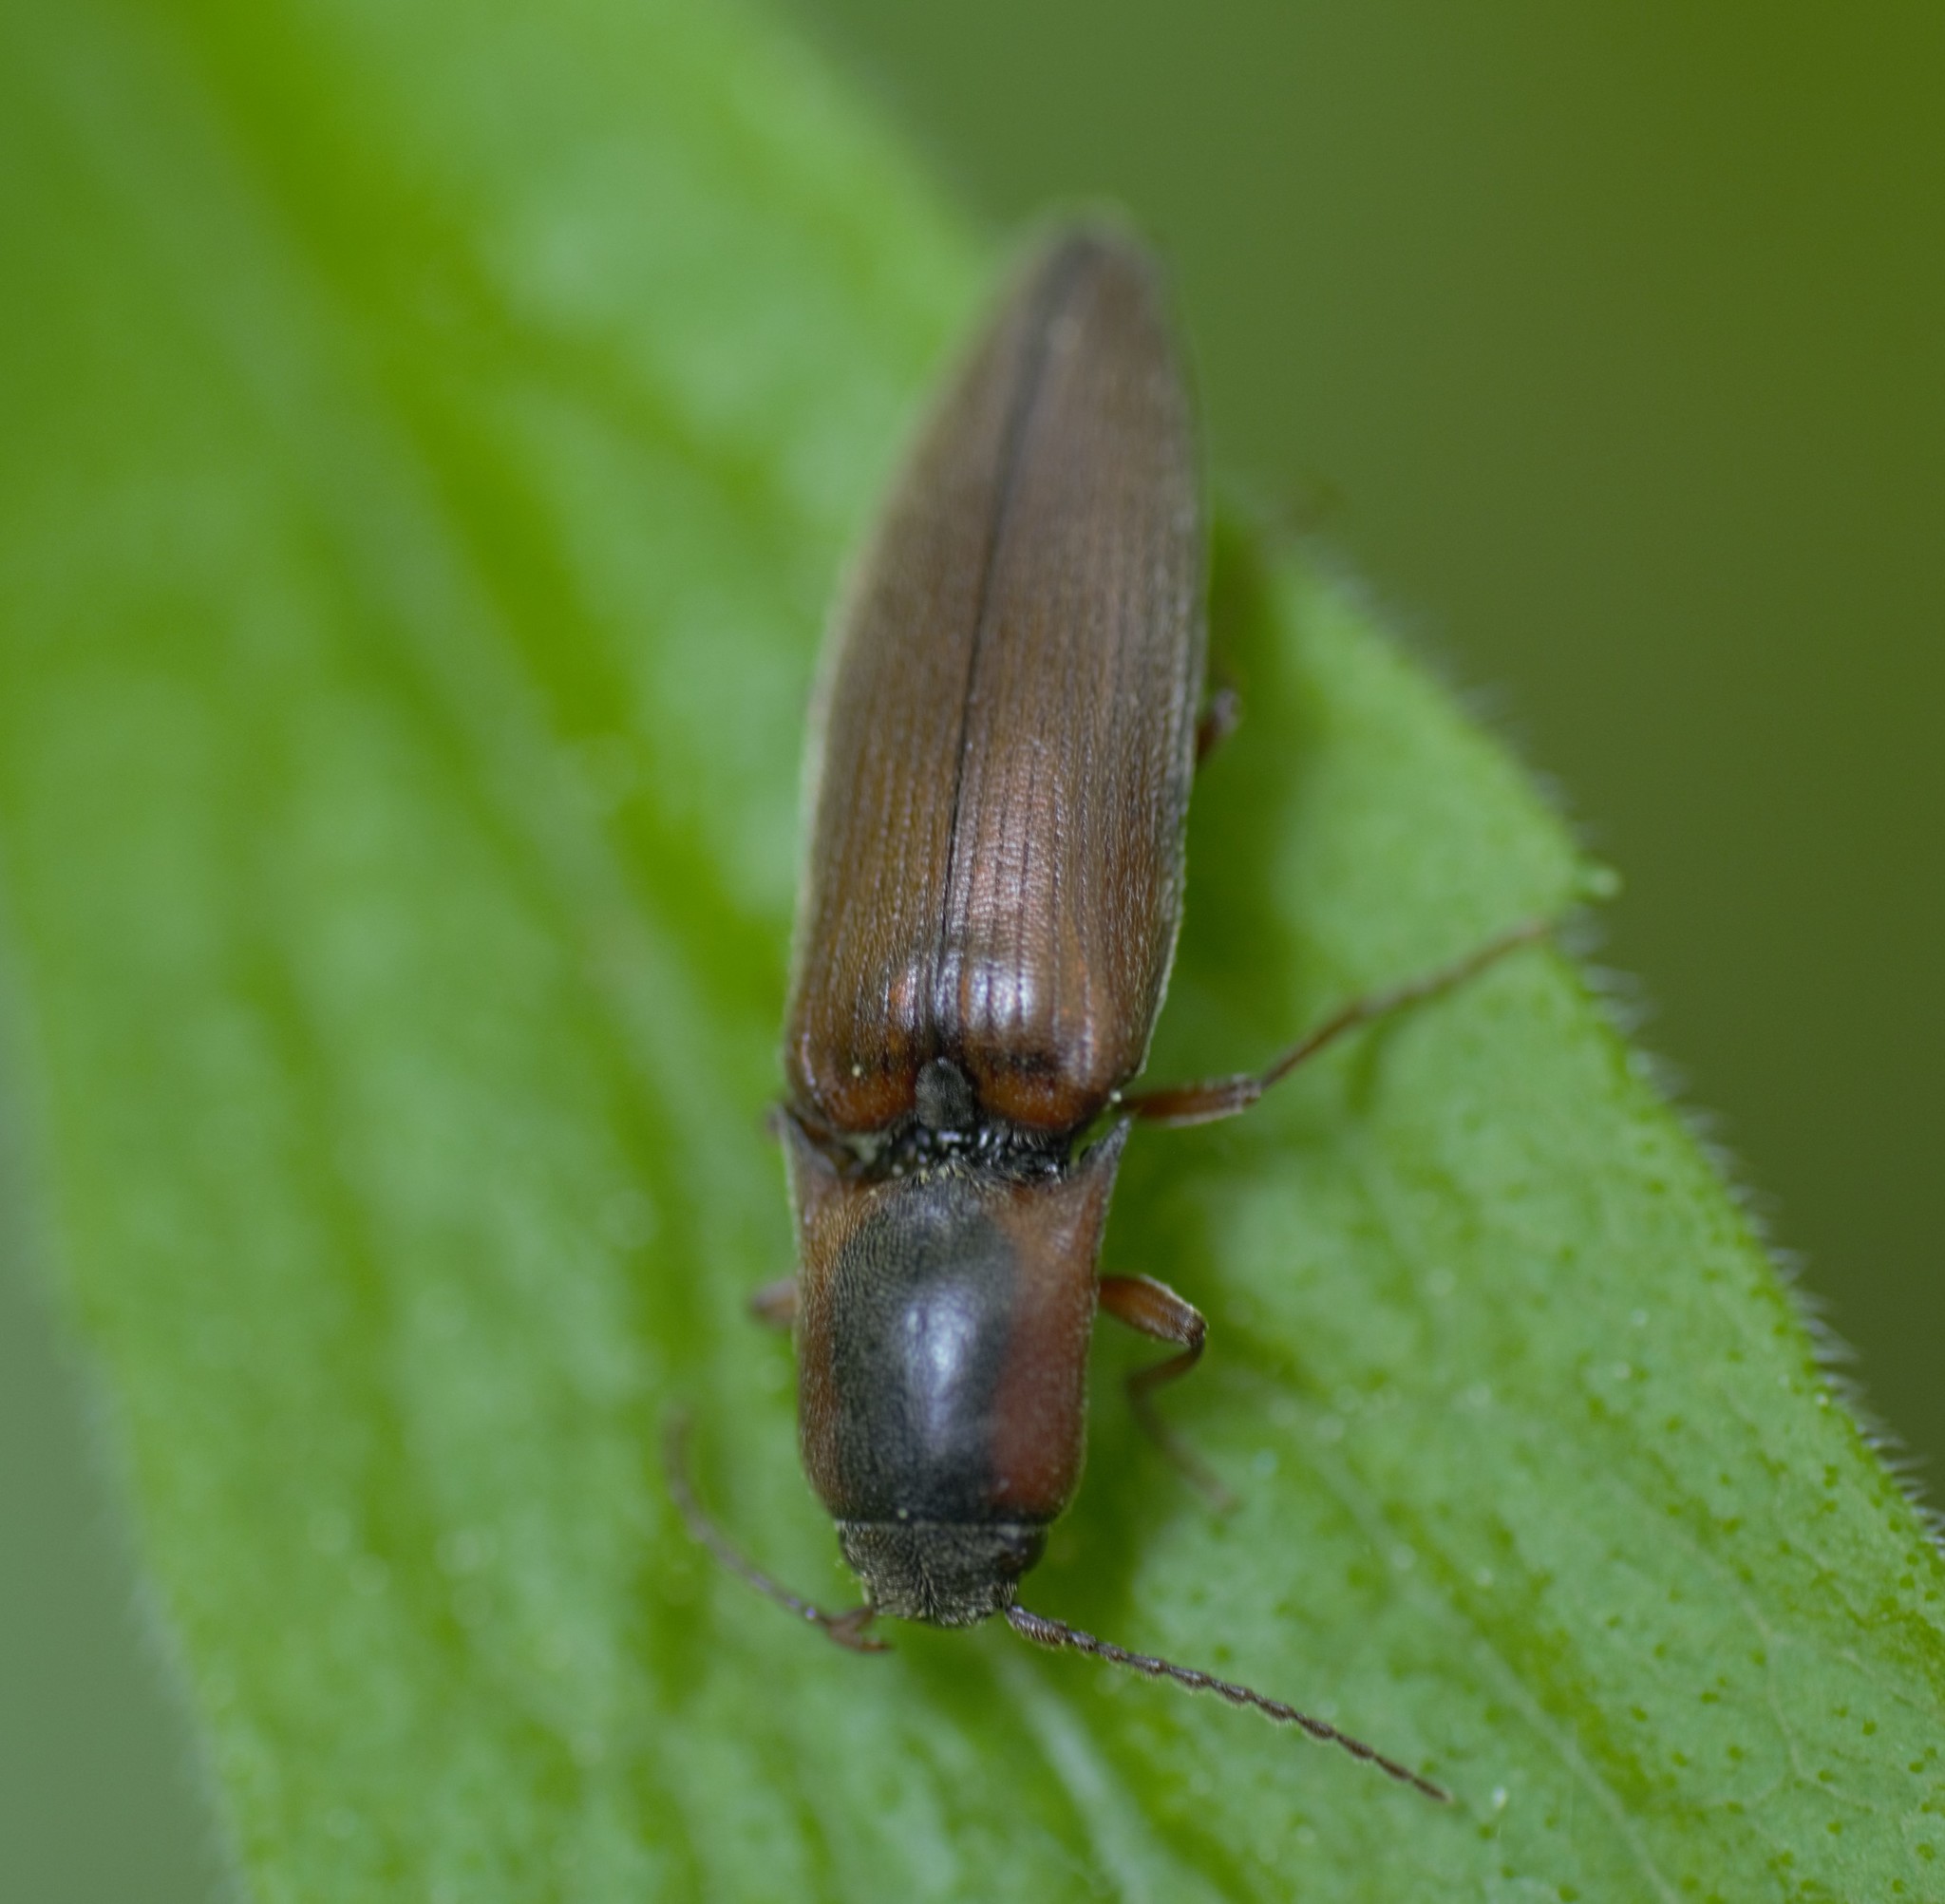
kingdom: Animalia
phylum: Arthropoda
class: Insecta
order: Coleoptera
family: Elateridae
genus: Agriotes
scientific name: Agriotes collaris
